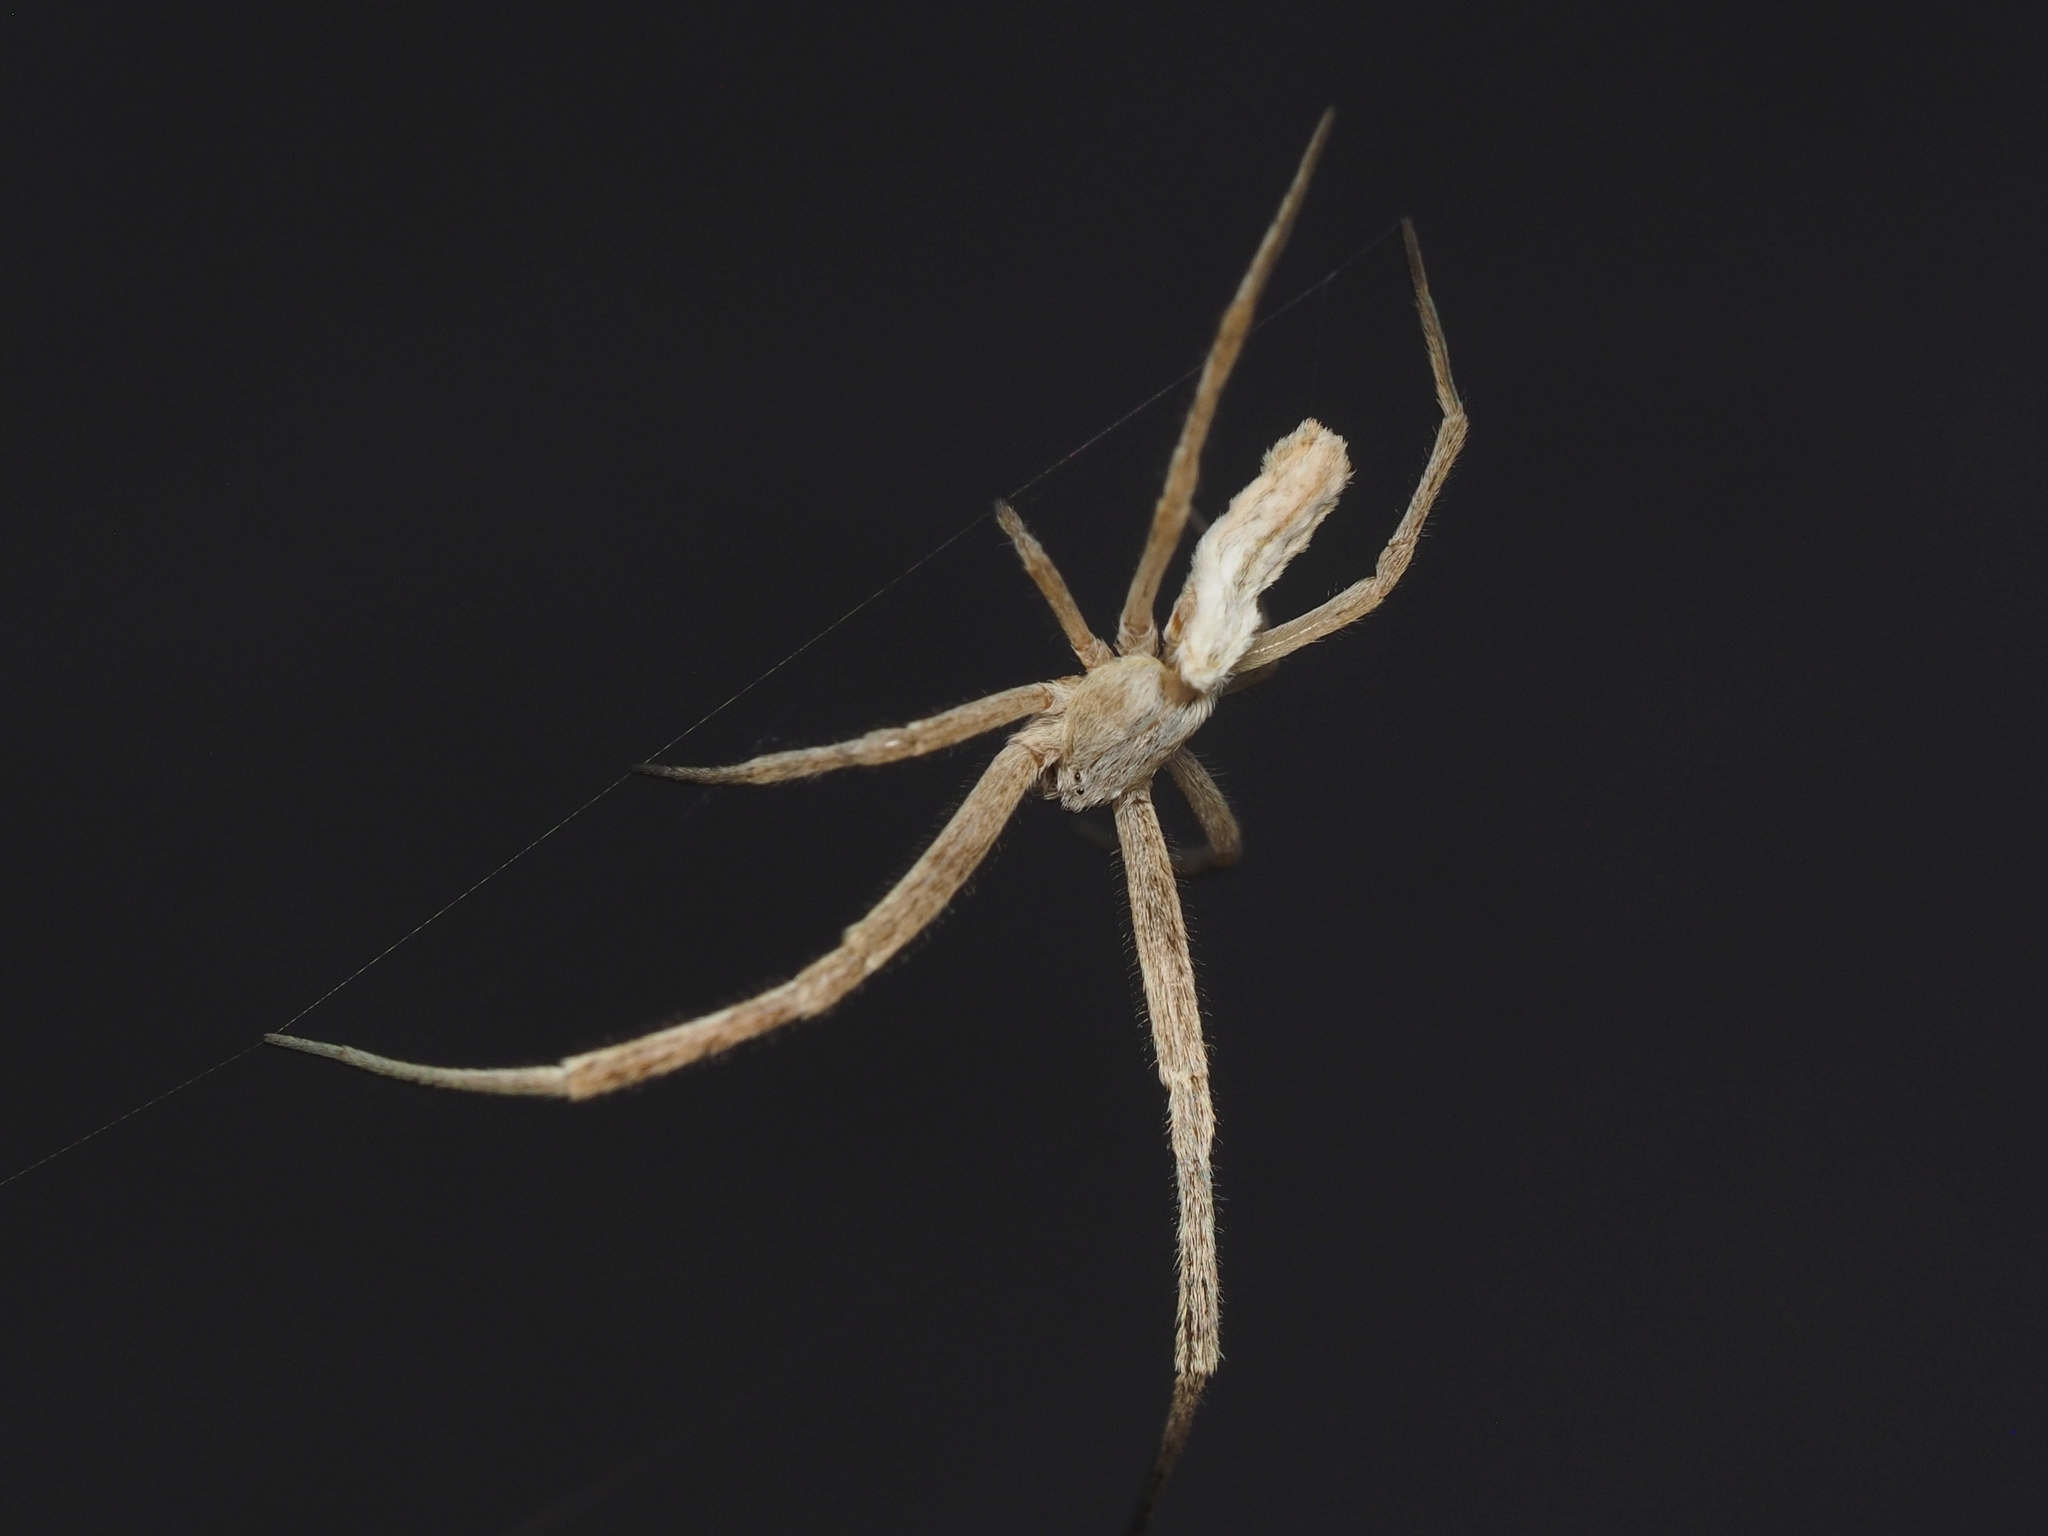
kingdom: Animalia
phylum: Arthropoda
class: Arachnida
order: Araneae
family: Uloboridae
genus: Uloborus
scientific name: Uloborus walckenaerius
